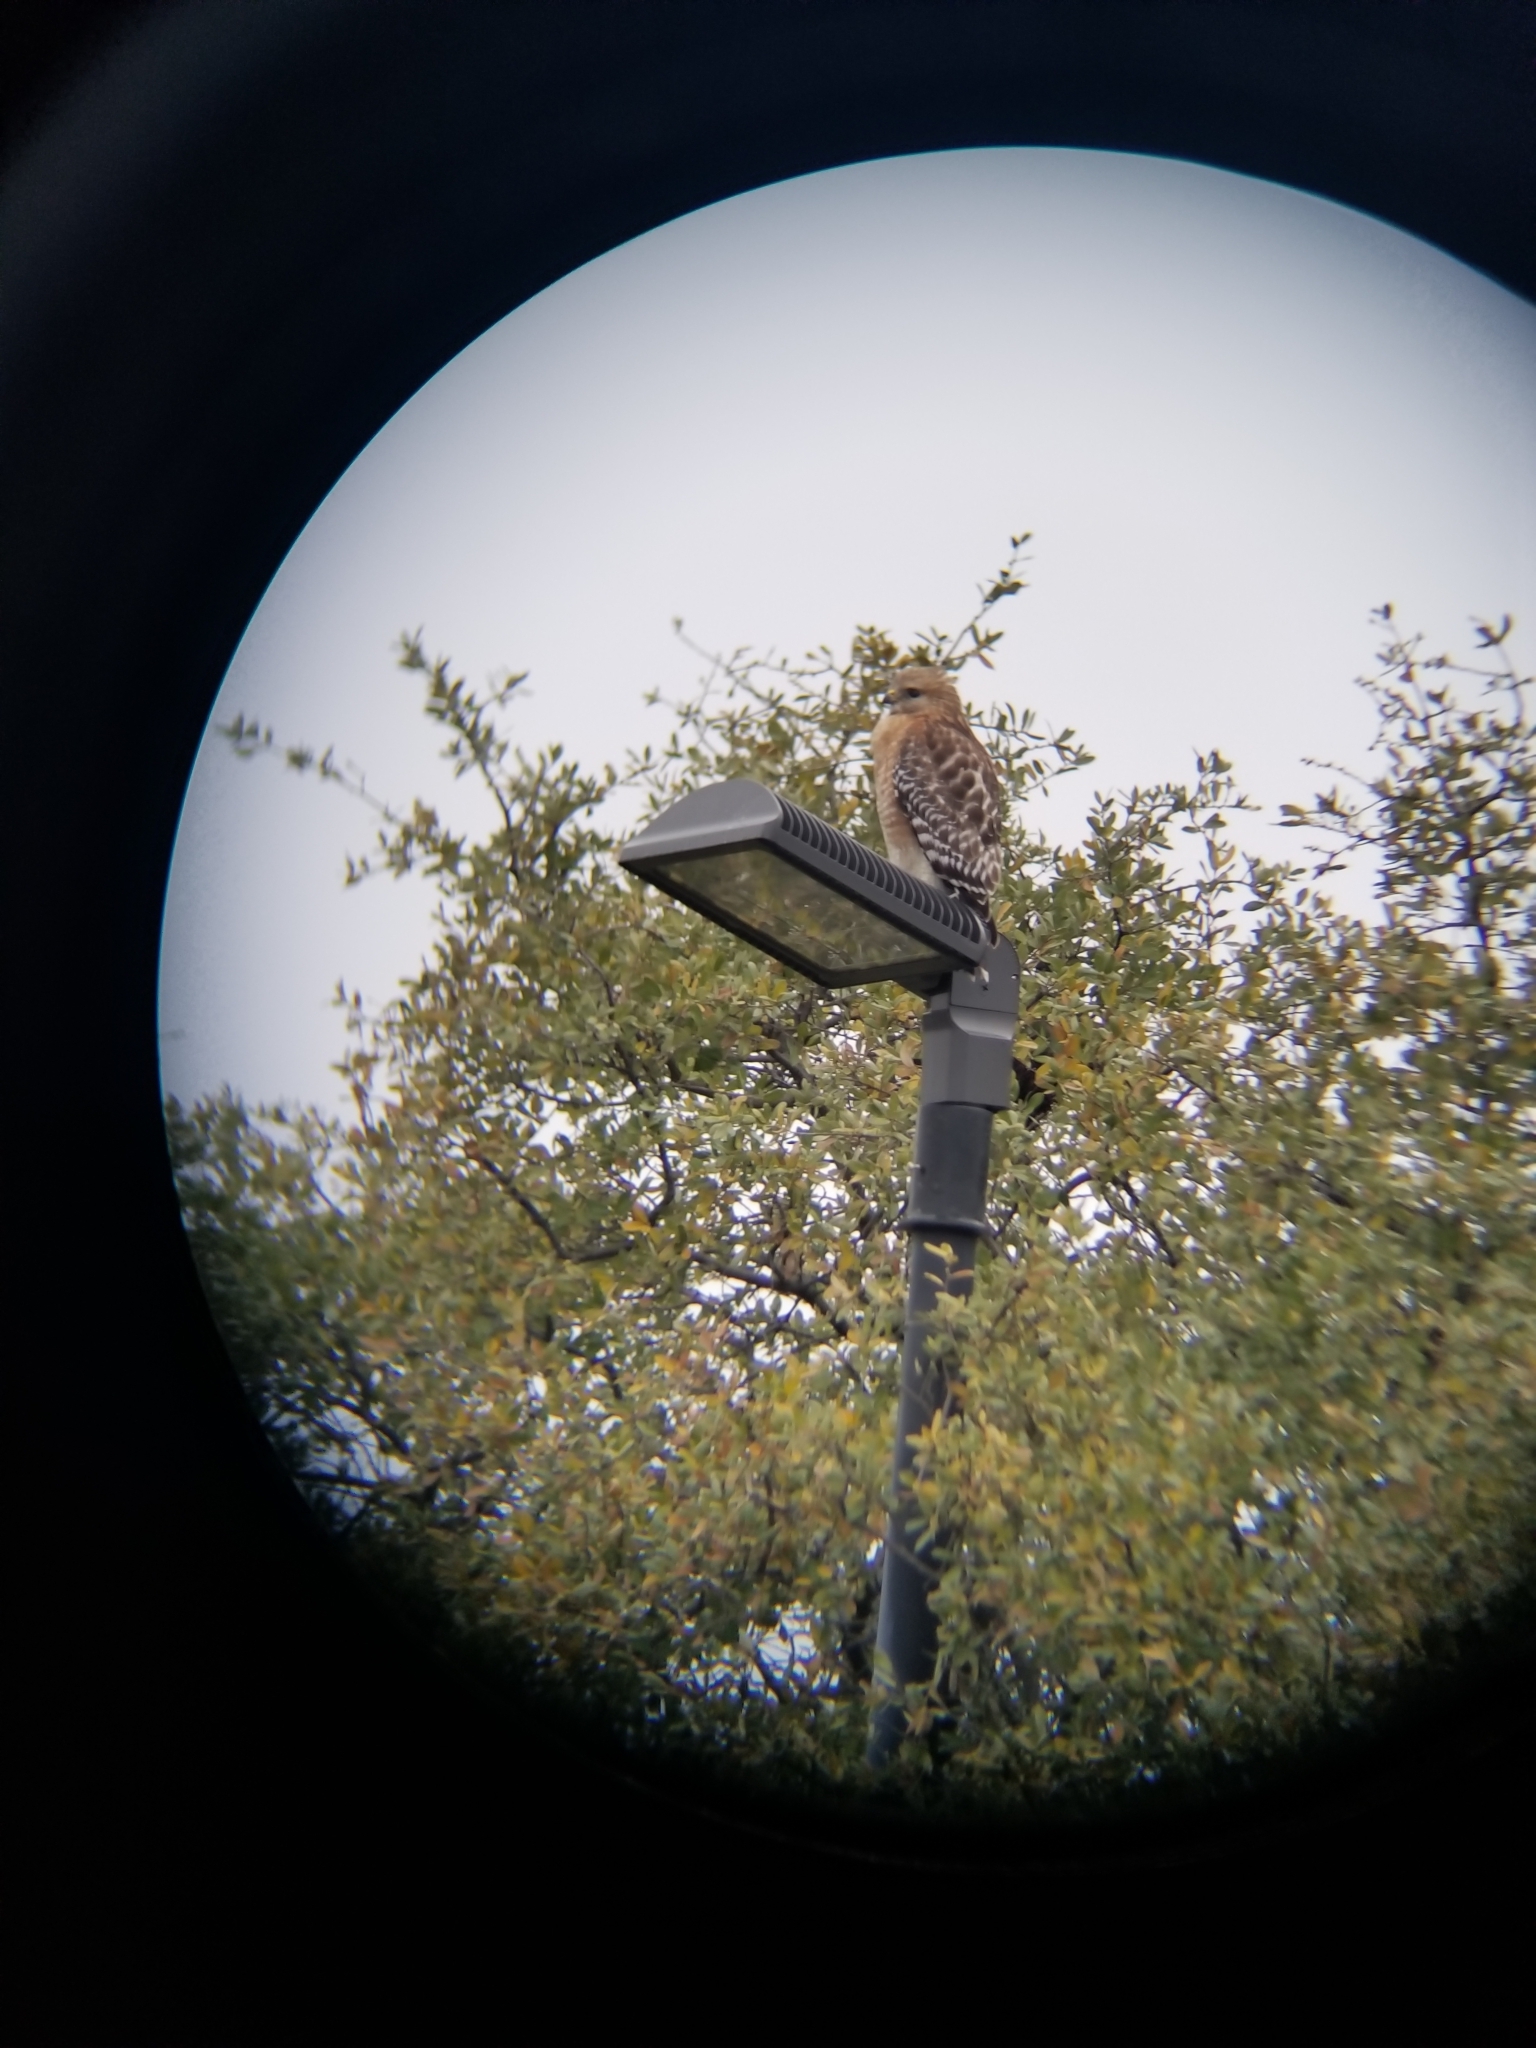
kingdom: Animalia
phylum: Chordata
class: Aves
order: Accipitriformes
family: Accipitridae
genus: Buteo
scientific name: Buteo lineatus
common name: Red-shouldered hawk
